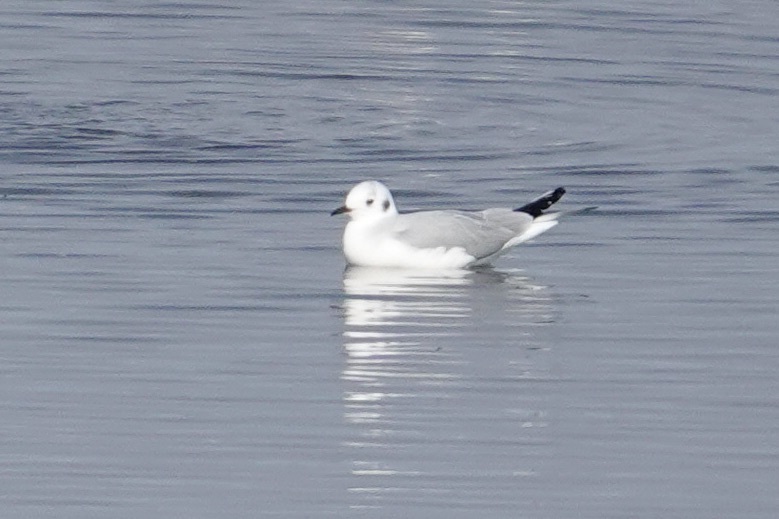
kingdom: Animalia
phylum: Chordata
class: Aves
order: Charadriiformes
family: Laridae
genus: Chroicocephalus
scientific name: Chroicocephalus philadelphia
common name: Bonaparte's gull
